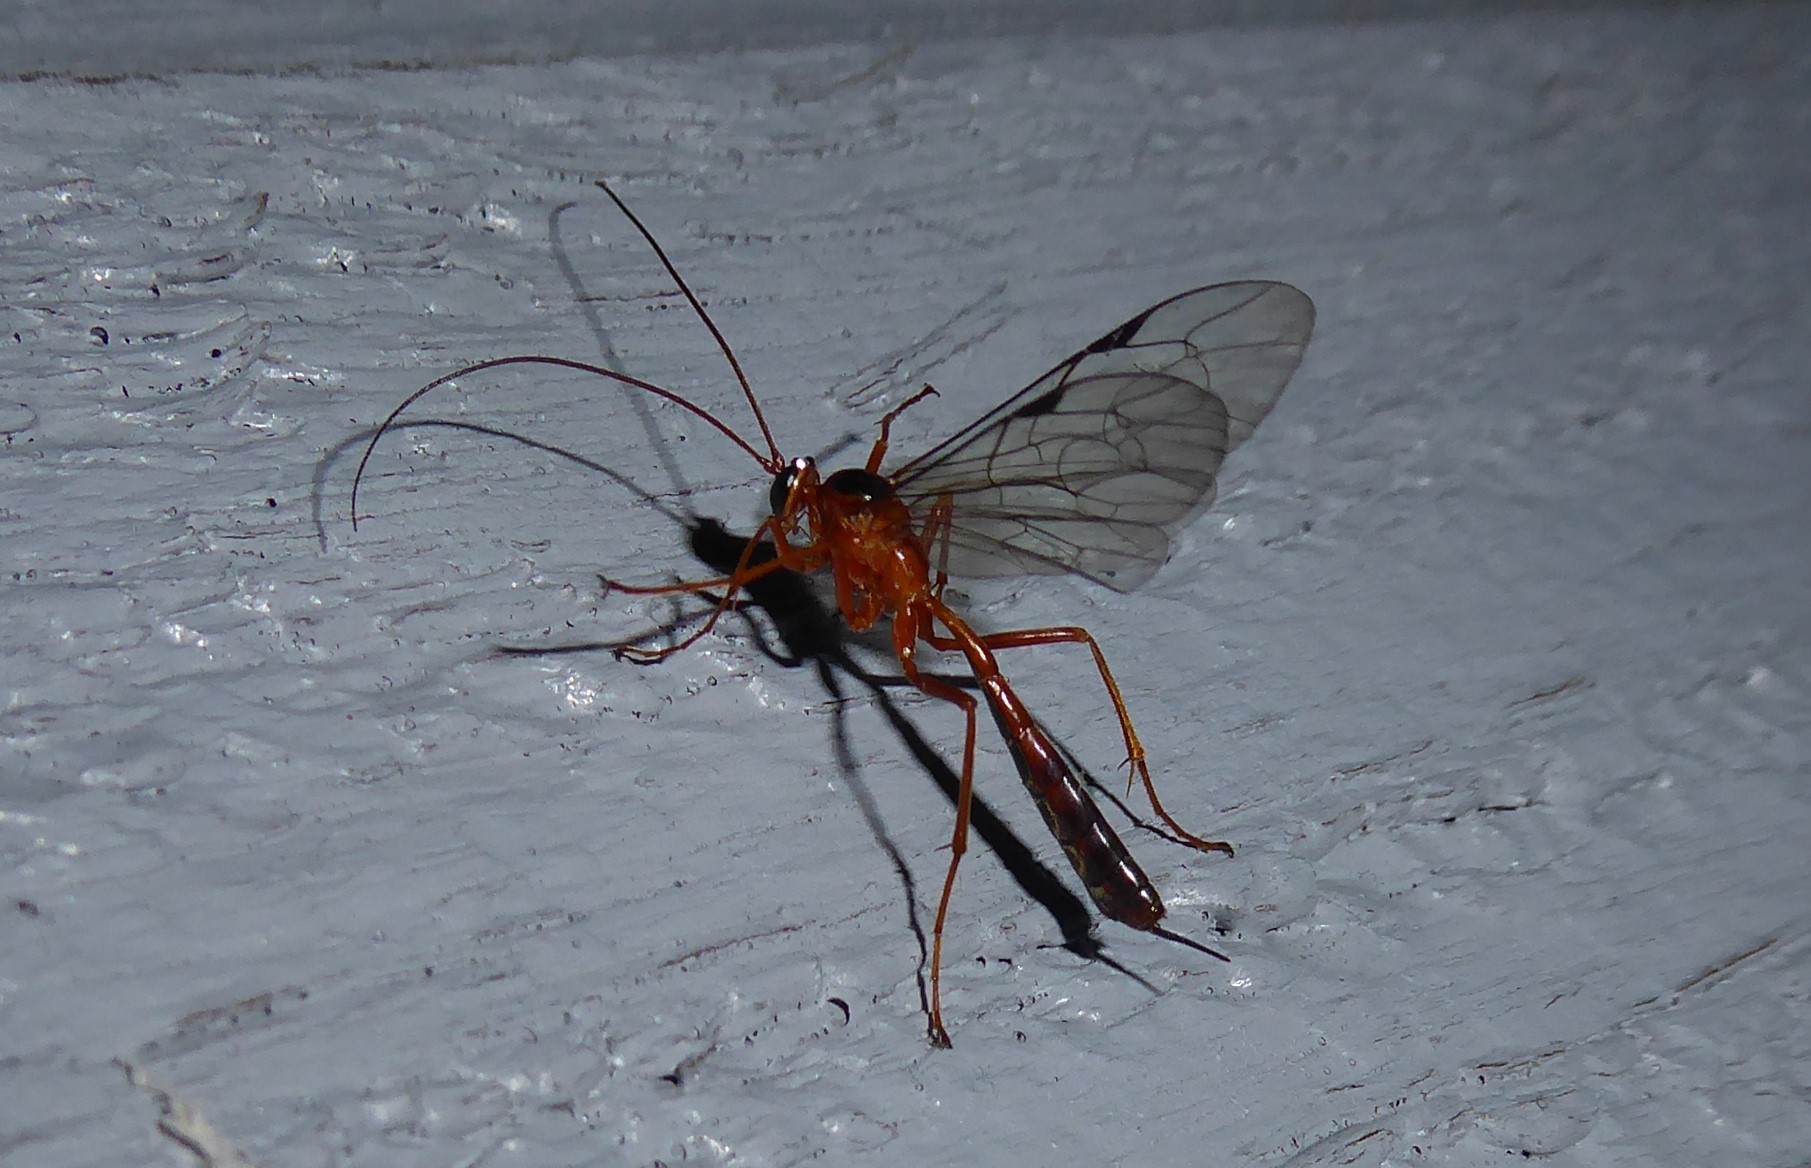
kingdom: Animalia
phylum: Arthropoda
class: Insecta
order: Hymenoptera
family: Ichneumonidae
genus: Netelia
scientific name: Netelia ephippiata
